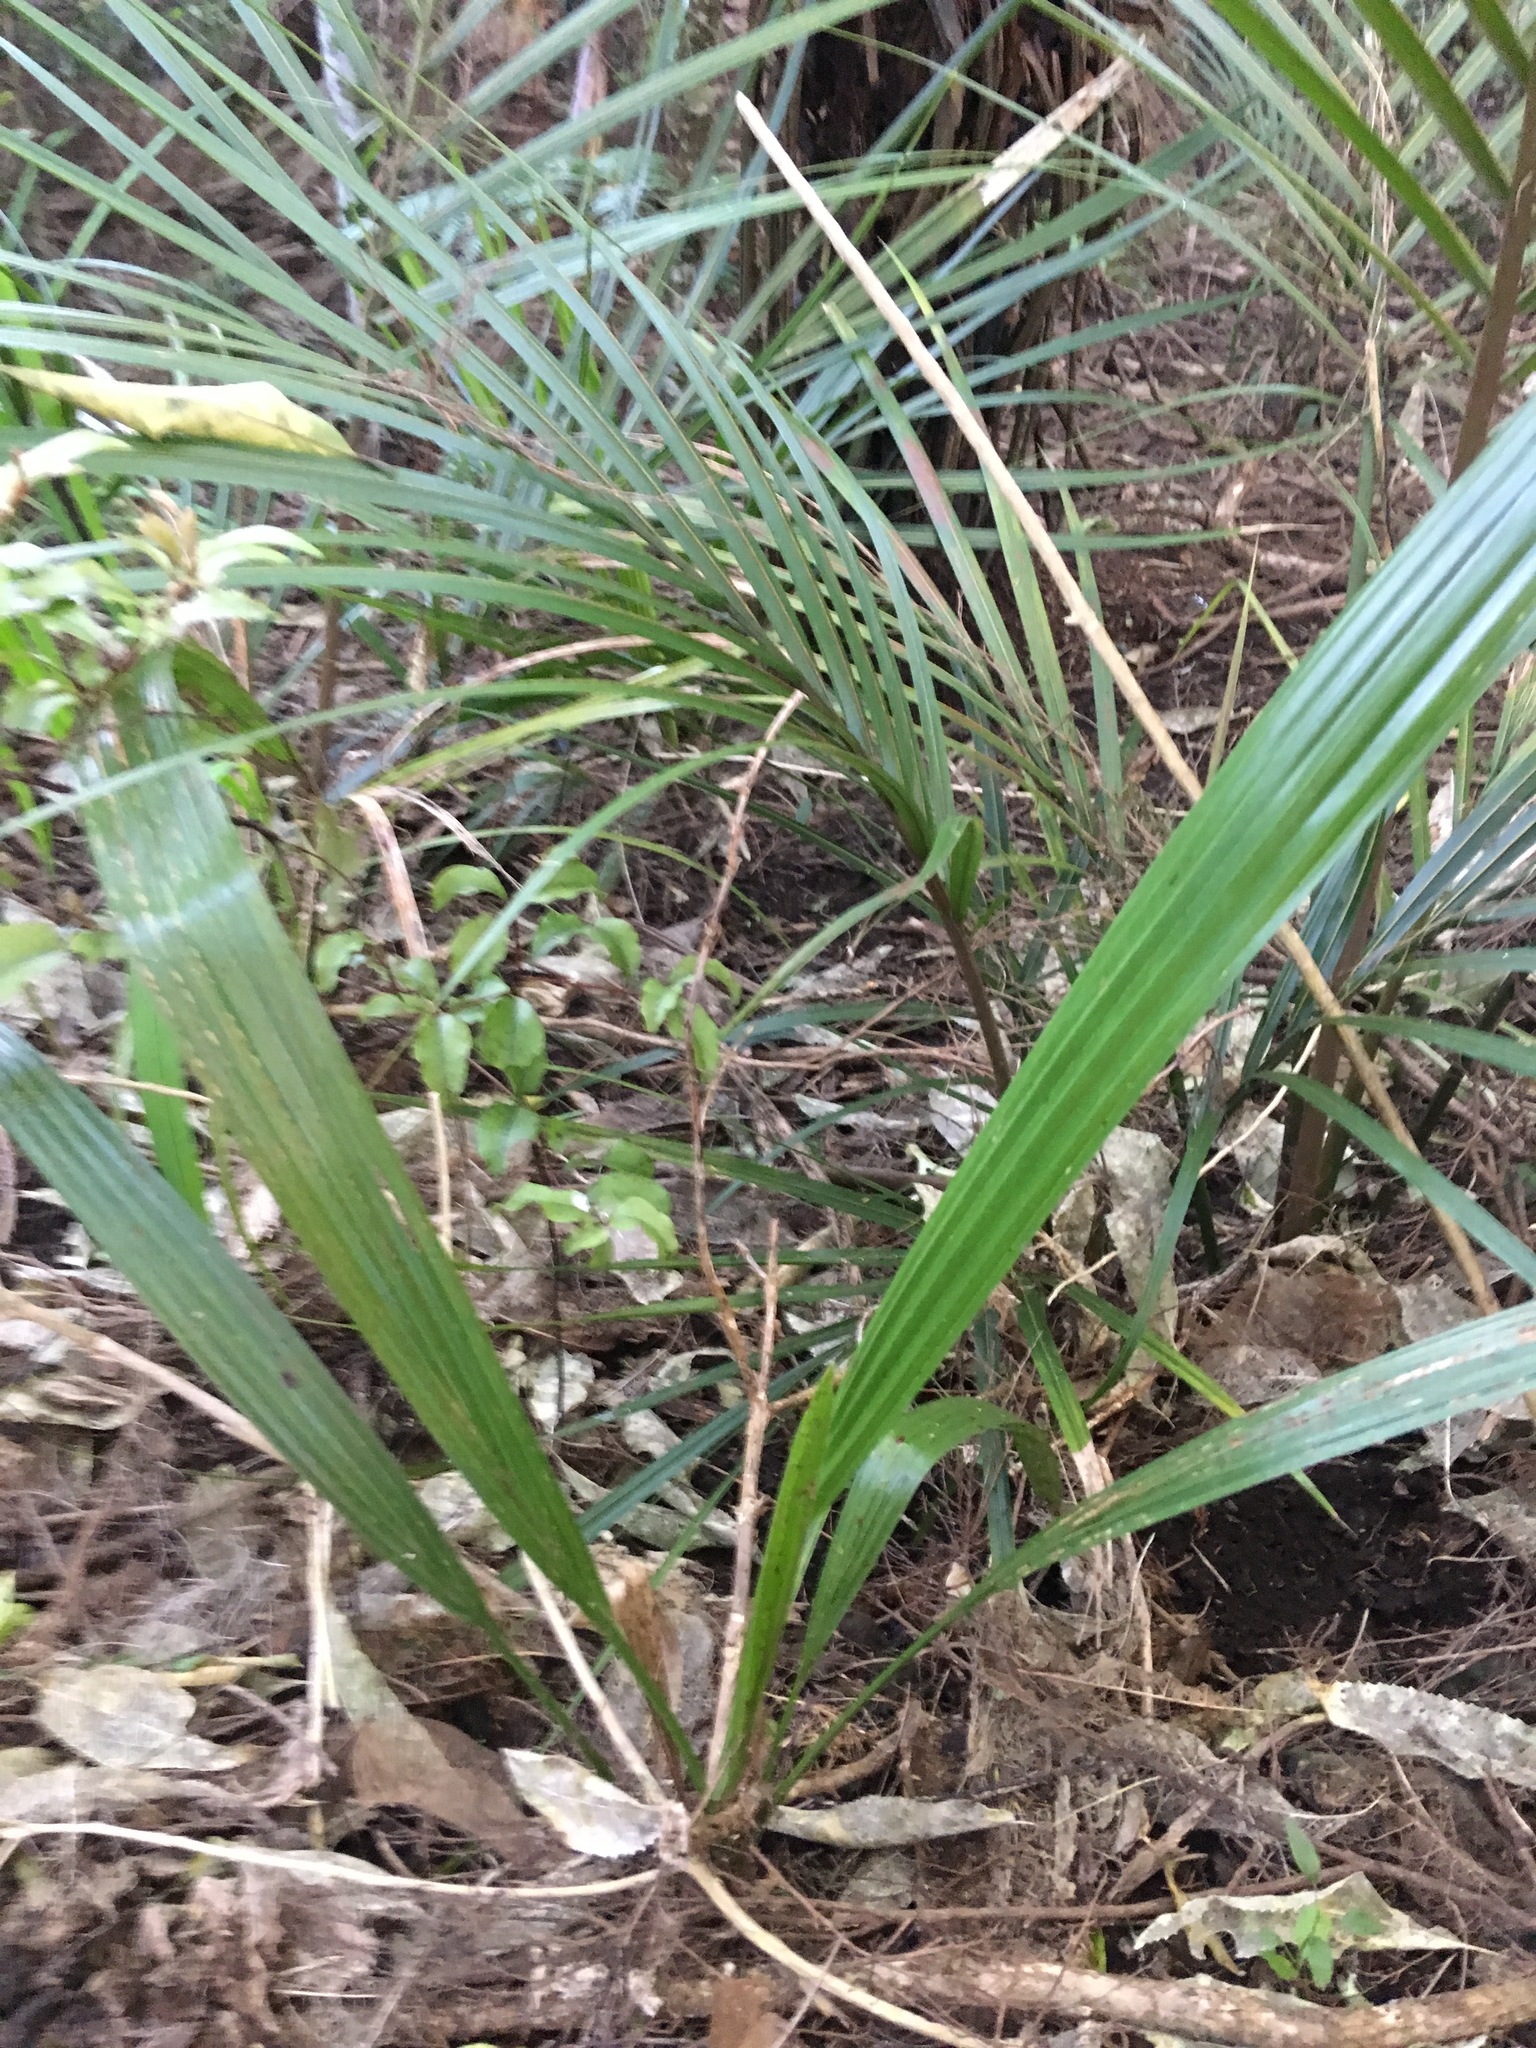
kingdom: Plantae
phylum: Tracheophyta
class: Liliopsida
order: Arecales
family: Arecaceae
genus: Phoenix
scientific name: Phoenix canariensis
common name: Canary island date palm
